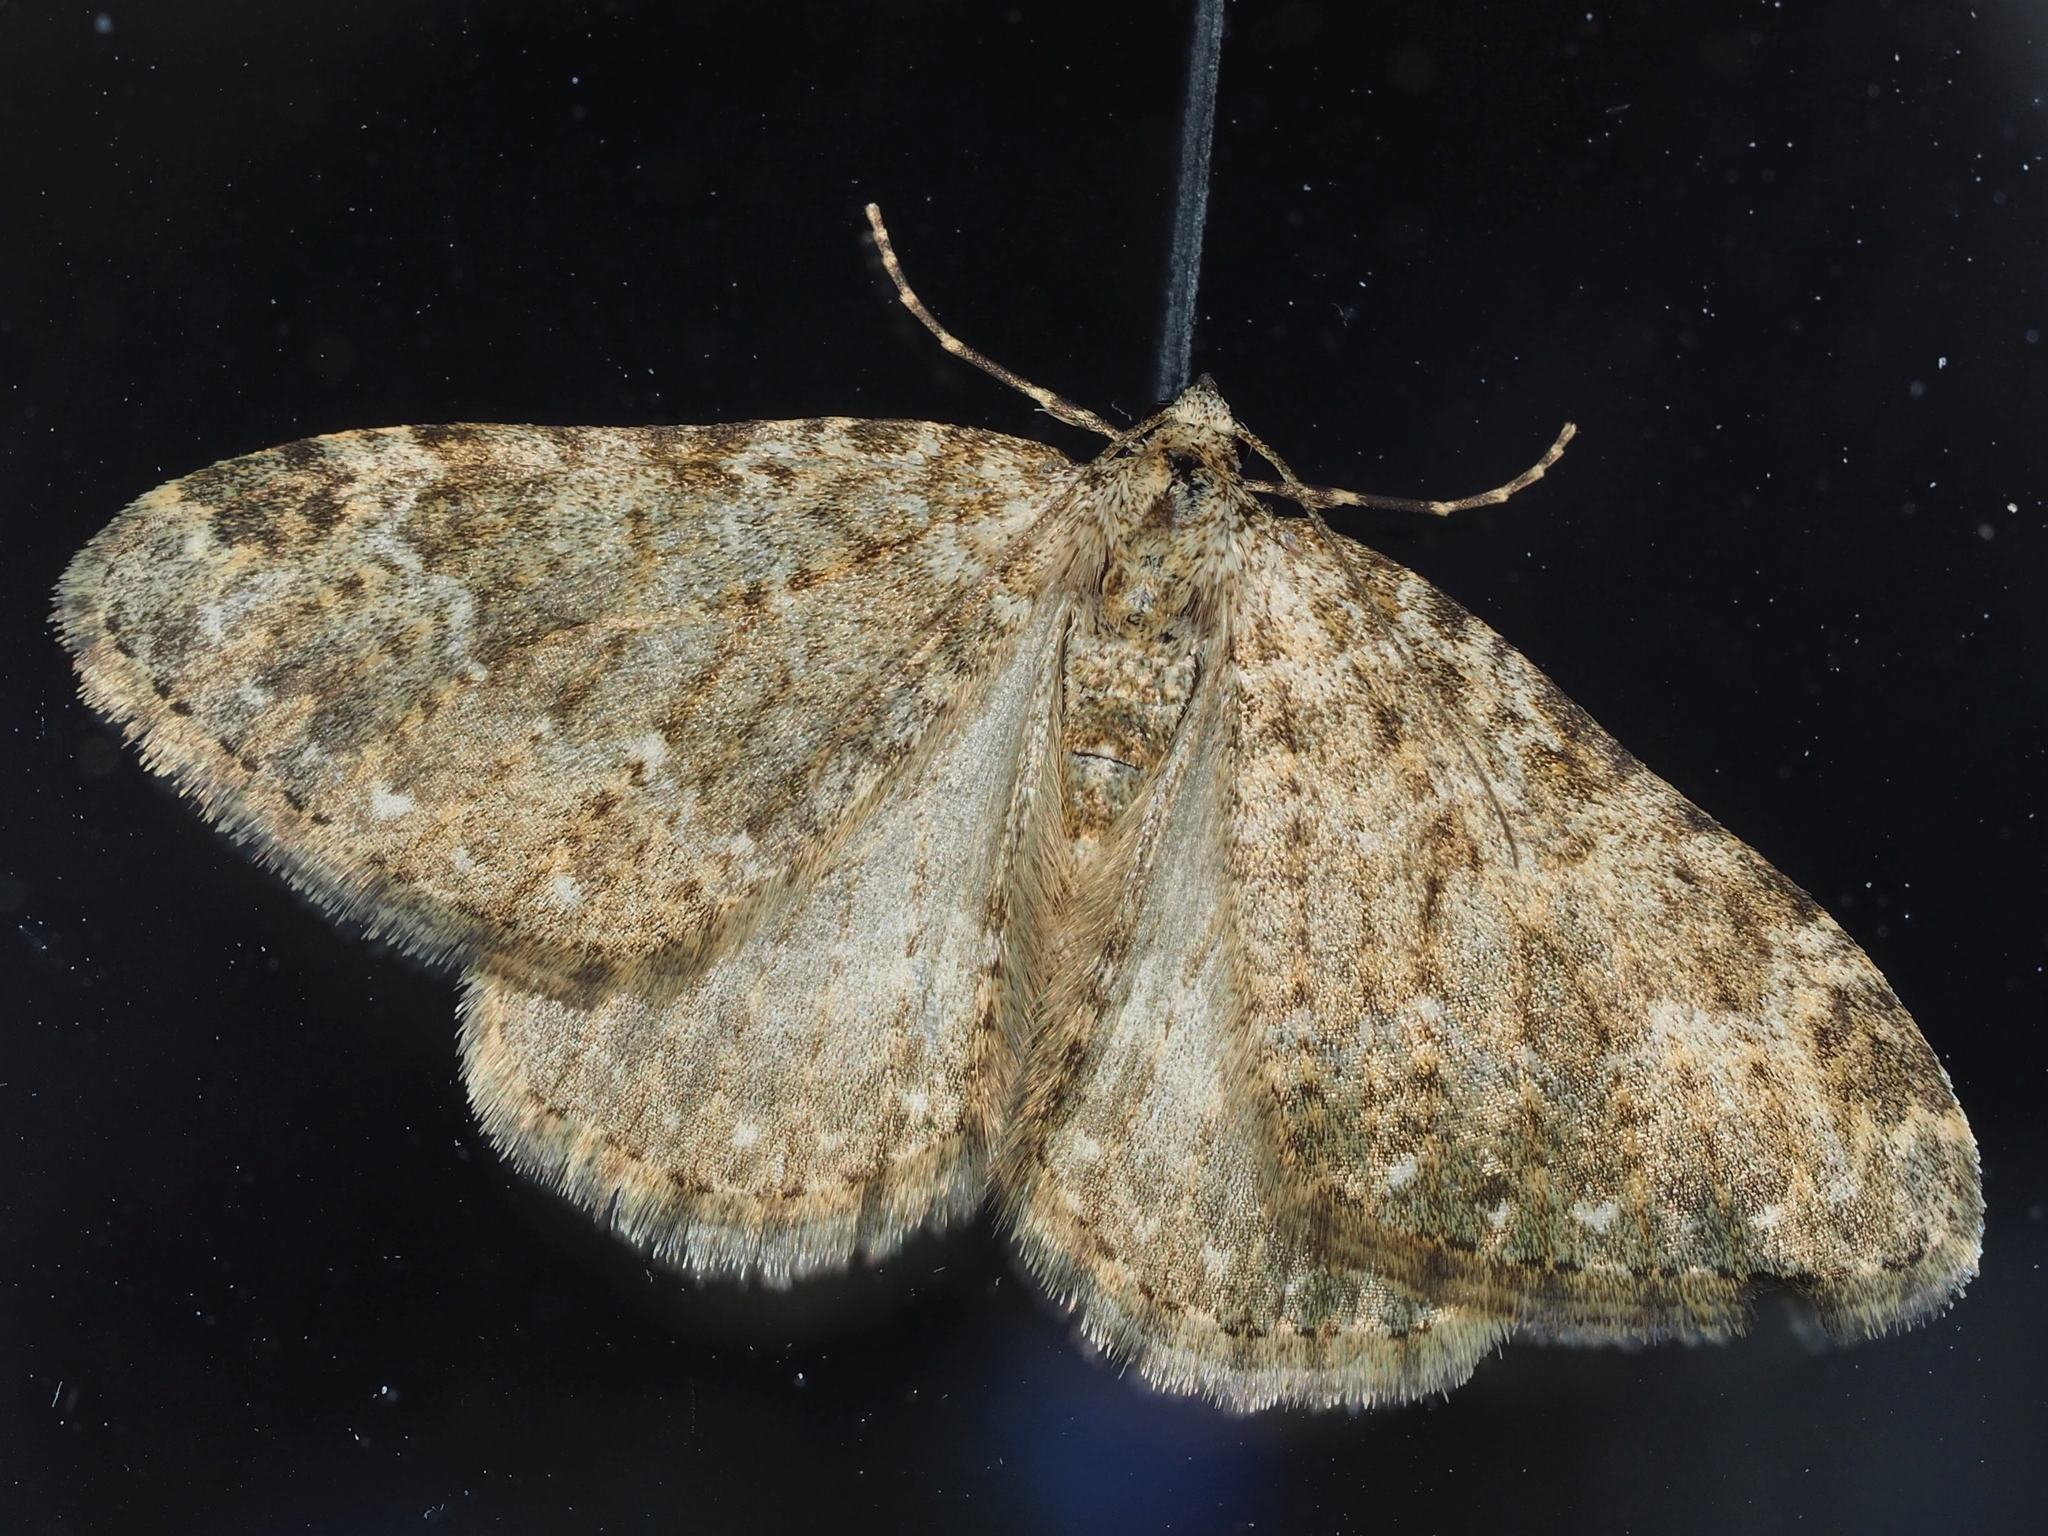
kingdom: Animalia
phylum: Arthropoda
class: Insecta
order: Lepidoptera
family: Geometridae
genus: Nebula
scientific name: Nebula salicata
